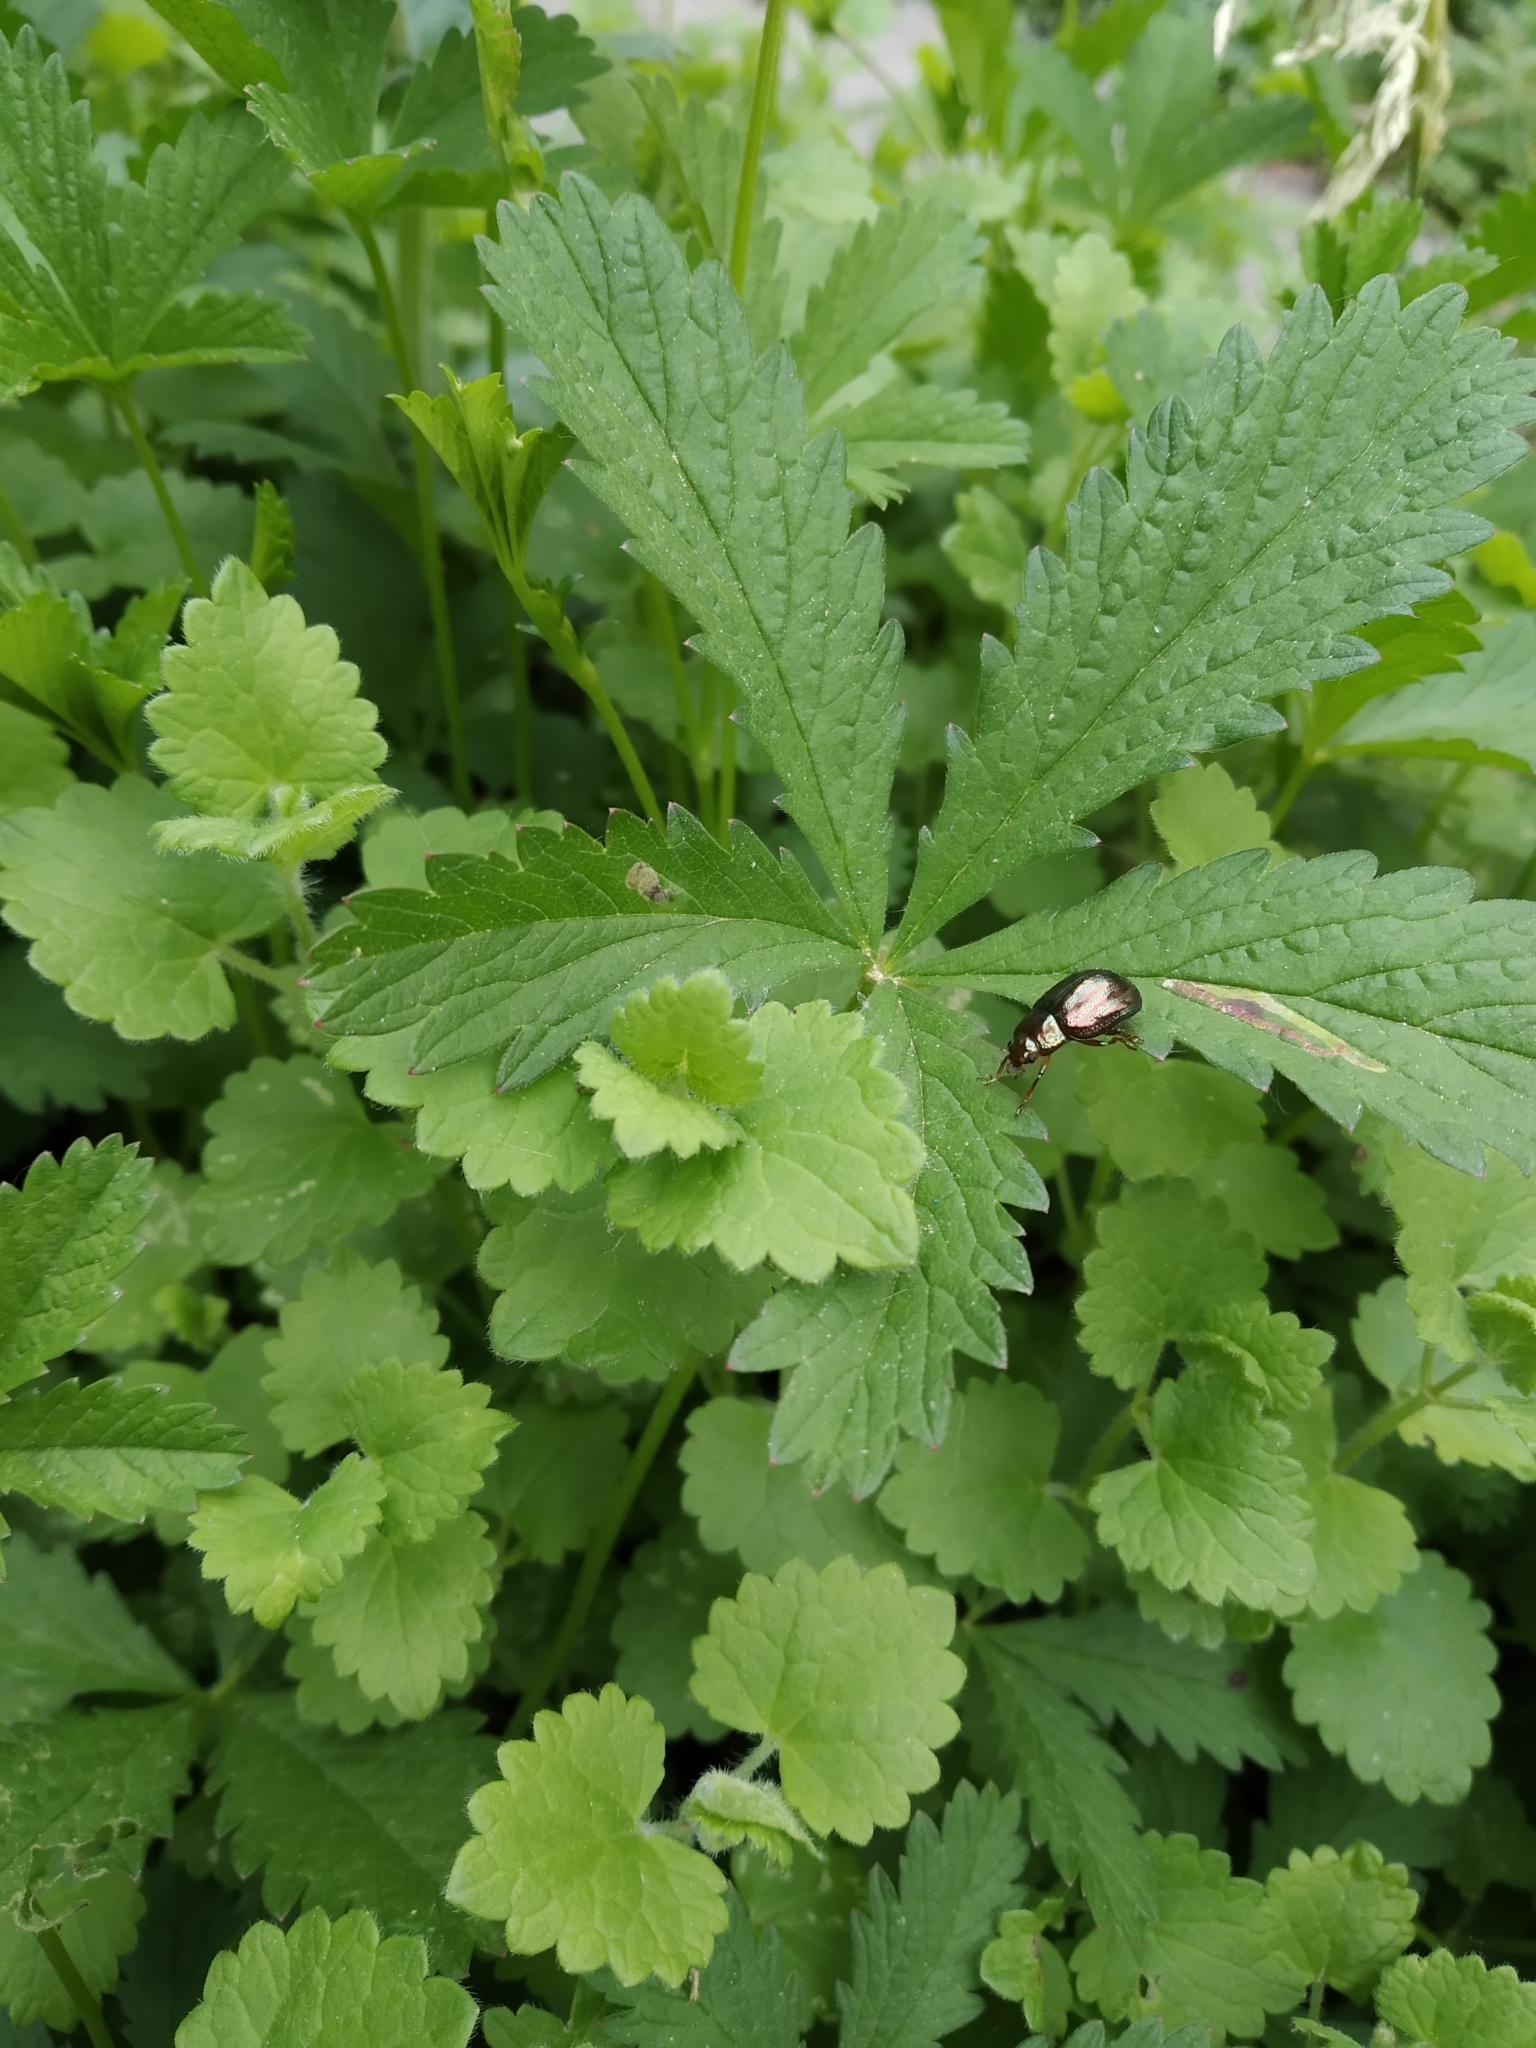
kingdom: Animalia
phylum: Arthropoda
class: Insecta
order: Coleoptera
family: Chrysomelidae
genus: Chrysolina
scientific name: Chrysolina americana
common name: Rosemary beetle
